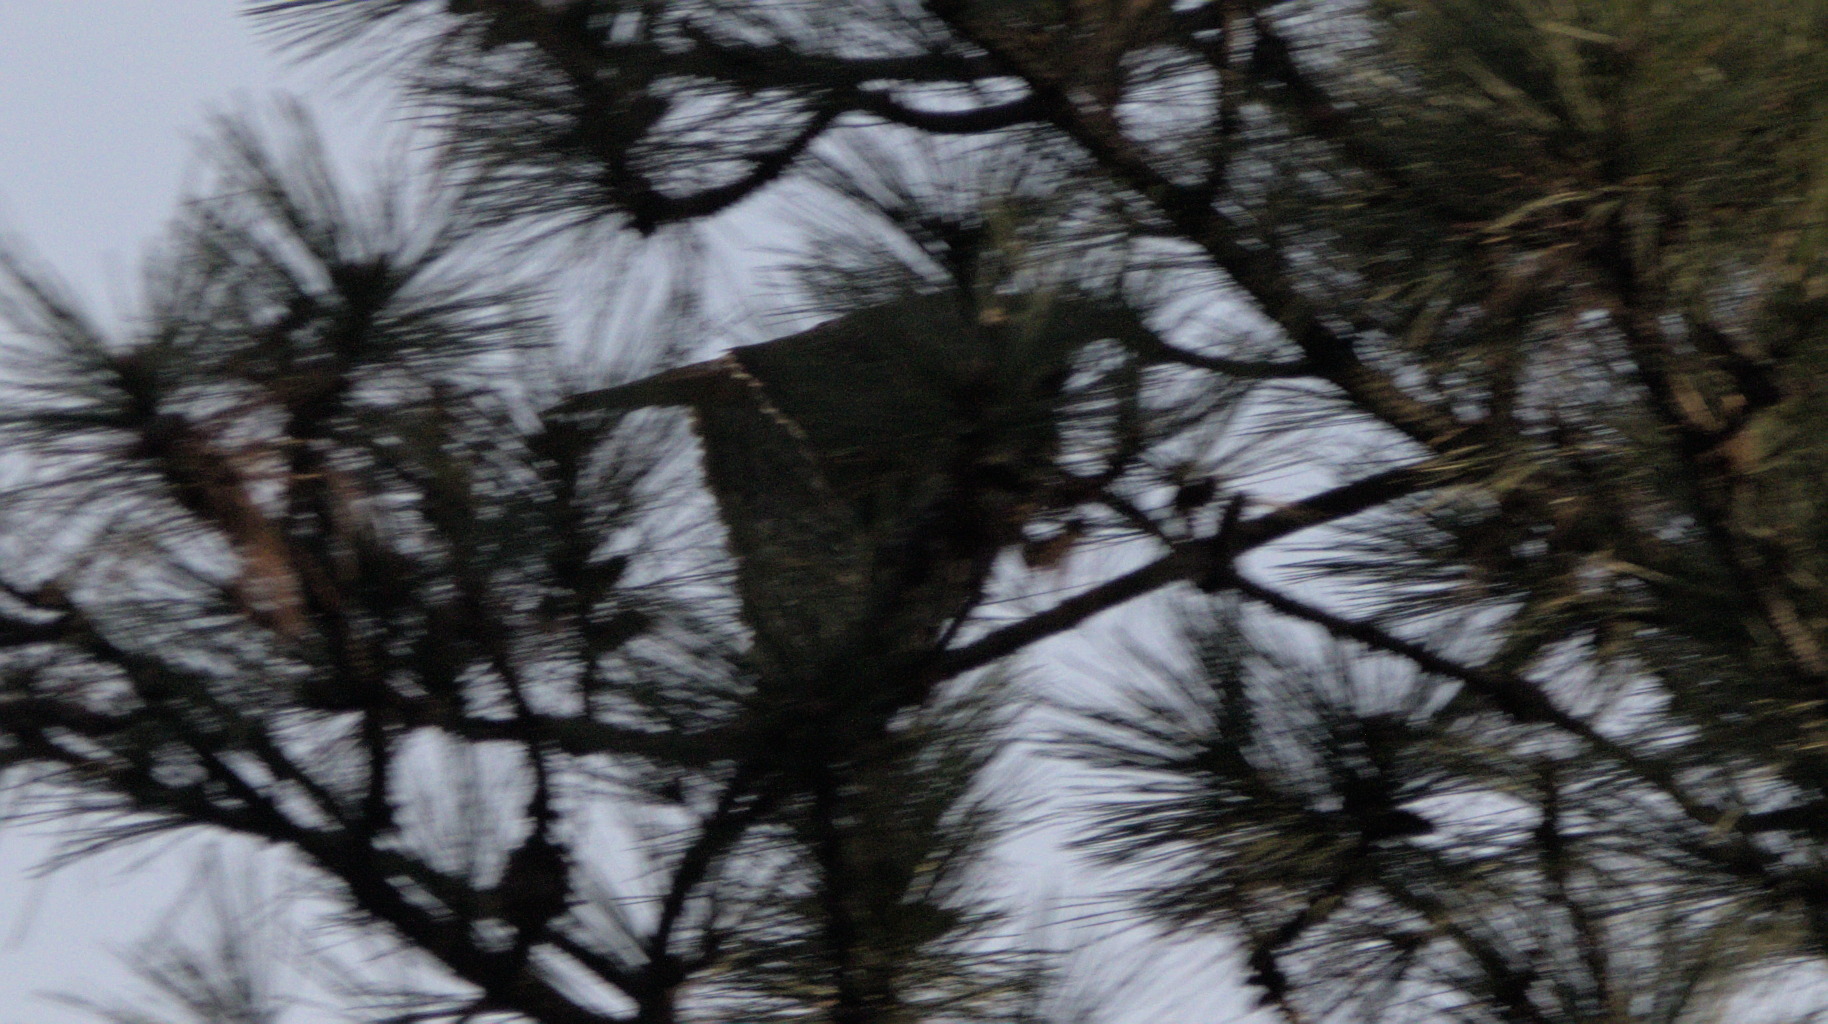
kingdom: Animalia
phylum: Chordata
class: Aves
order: Accipitriformes
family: Accipitridae
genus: Buteo
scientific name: Buteo jamaicensis
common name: Red-tailed hawk
